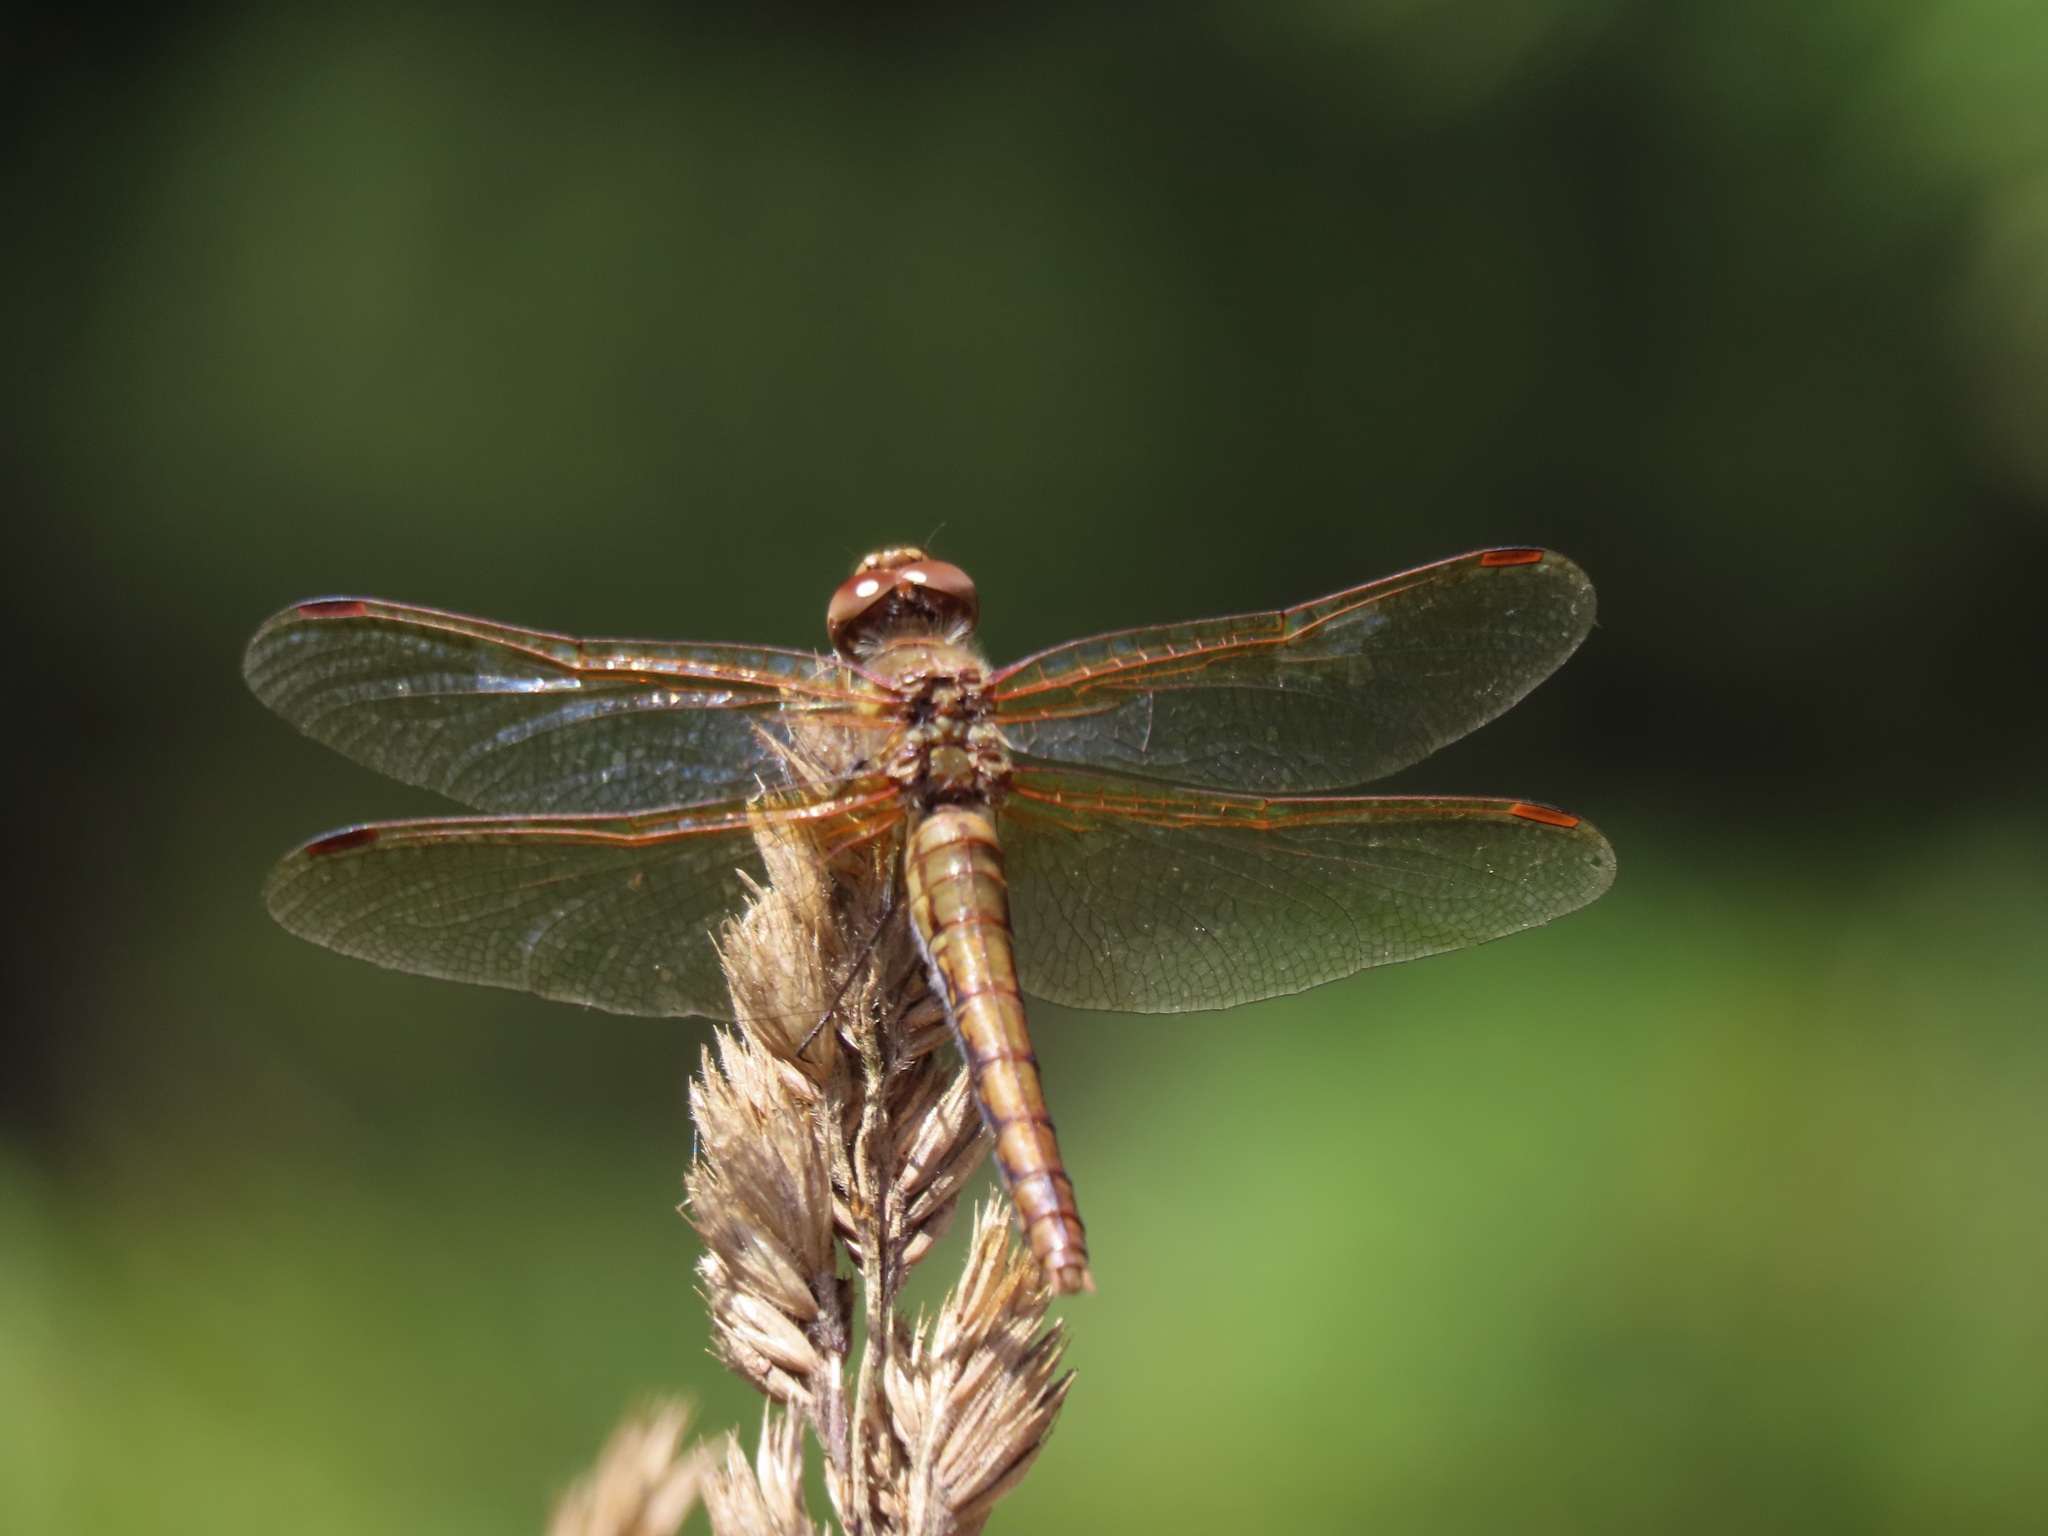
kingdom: Animalia
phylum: Arthropoda
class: Insecta
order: Odonata
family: Libellulidae
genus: Sympetrum
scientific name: Sympetrum madidum
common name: Red-veined meadowhawk
